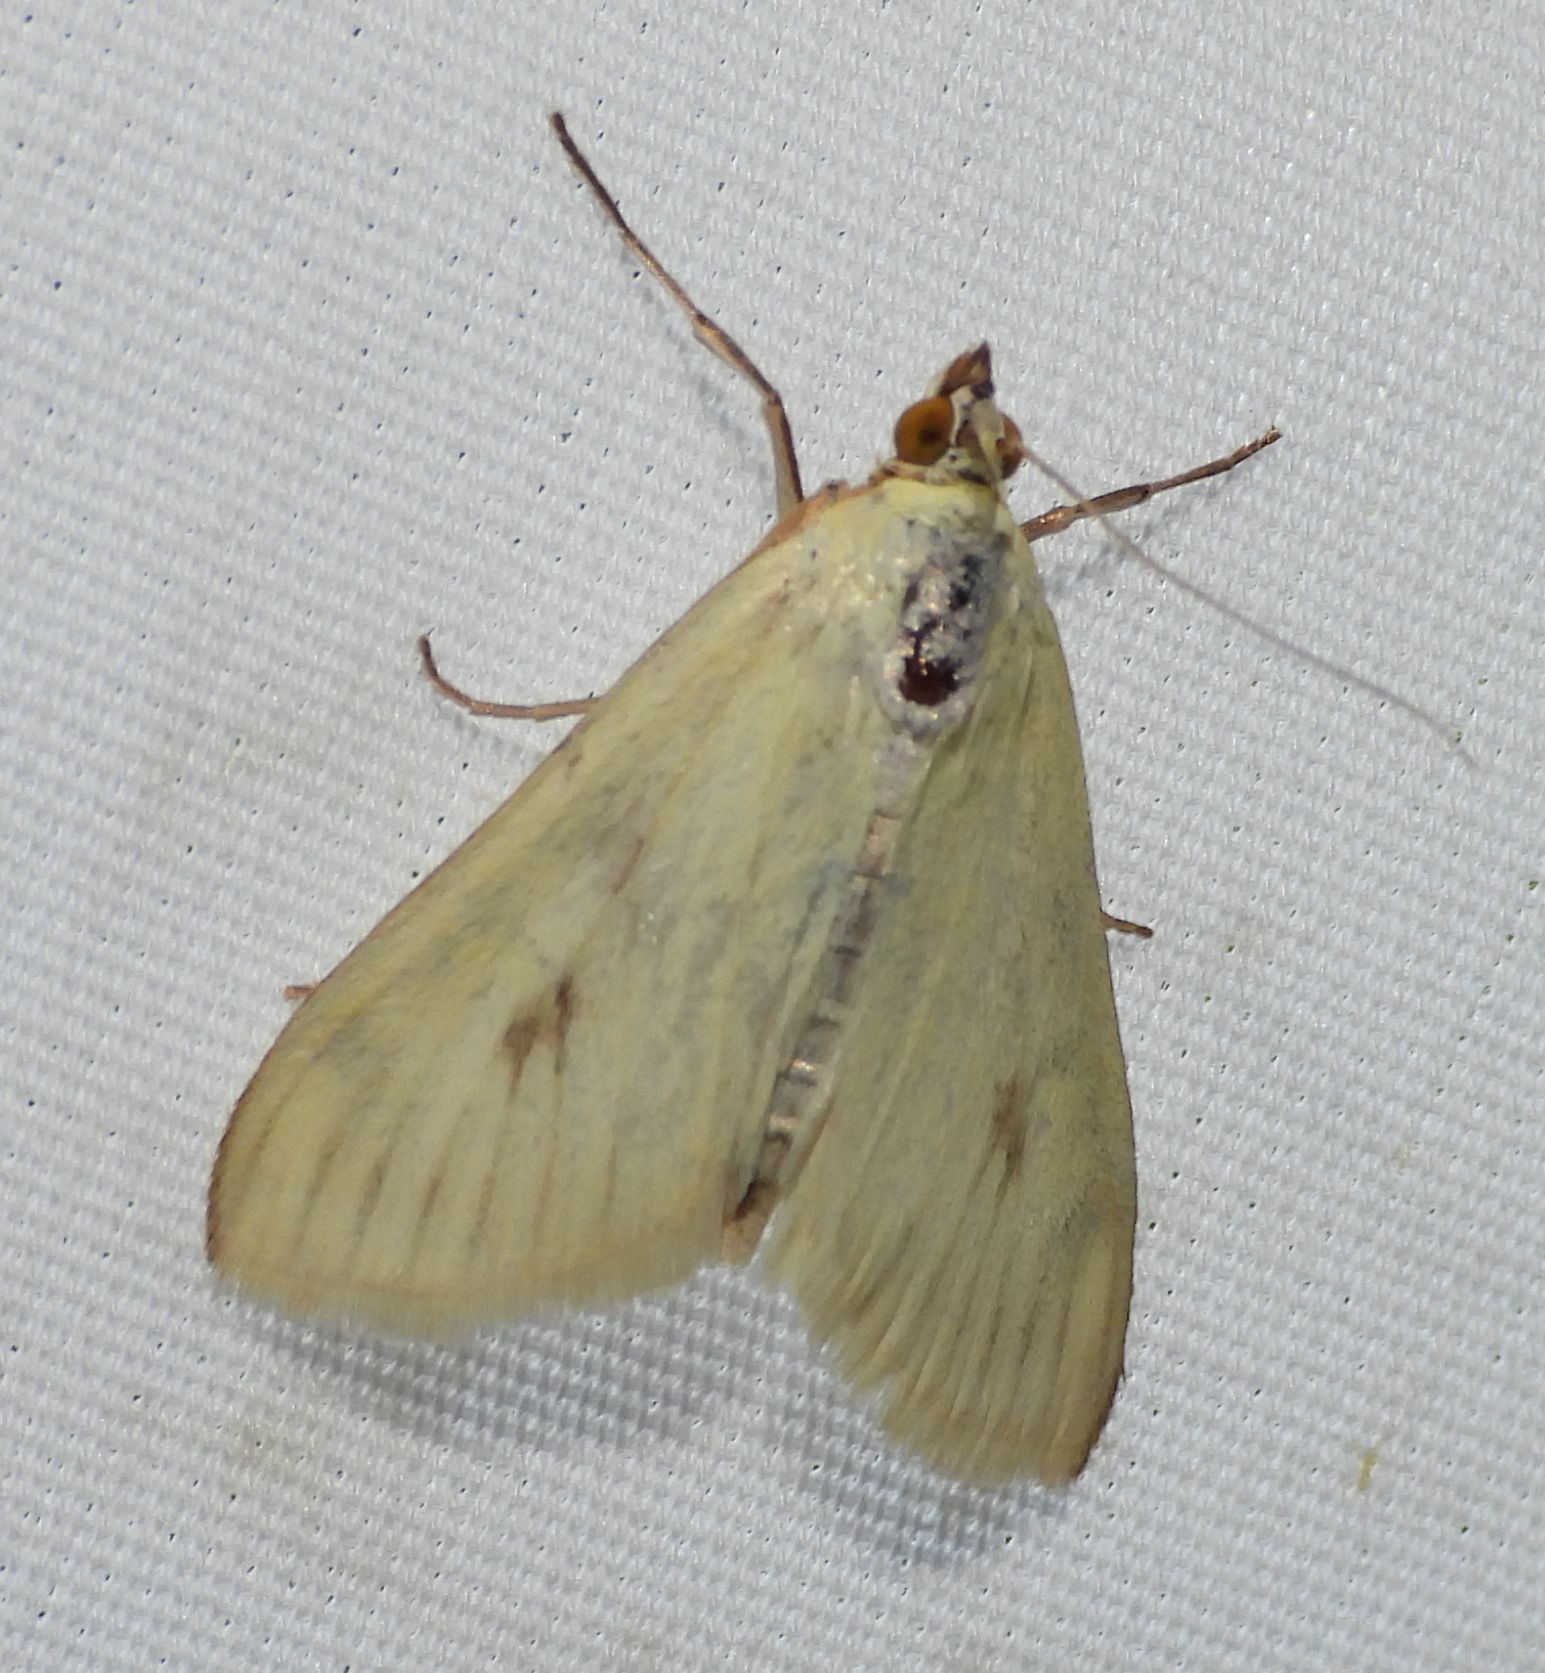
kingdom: Animalia
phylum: Arthropoda
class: Insecta
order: Lepidoptera
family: Crambidae
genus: Sitochroa
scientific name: Sitochroa palealis
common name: Greenish-yellow sitochroa moth
